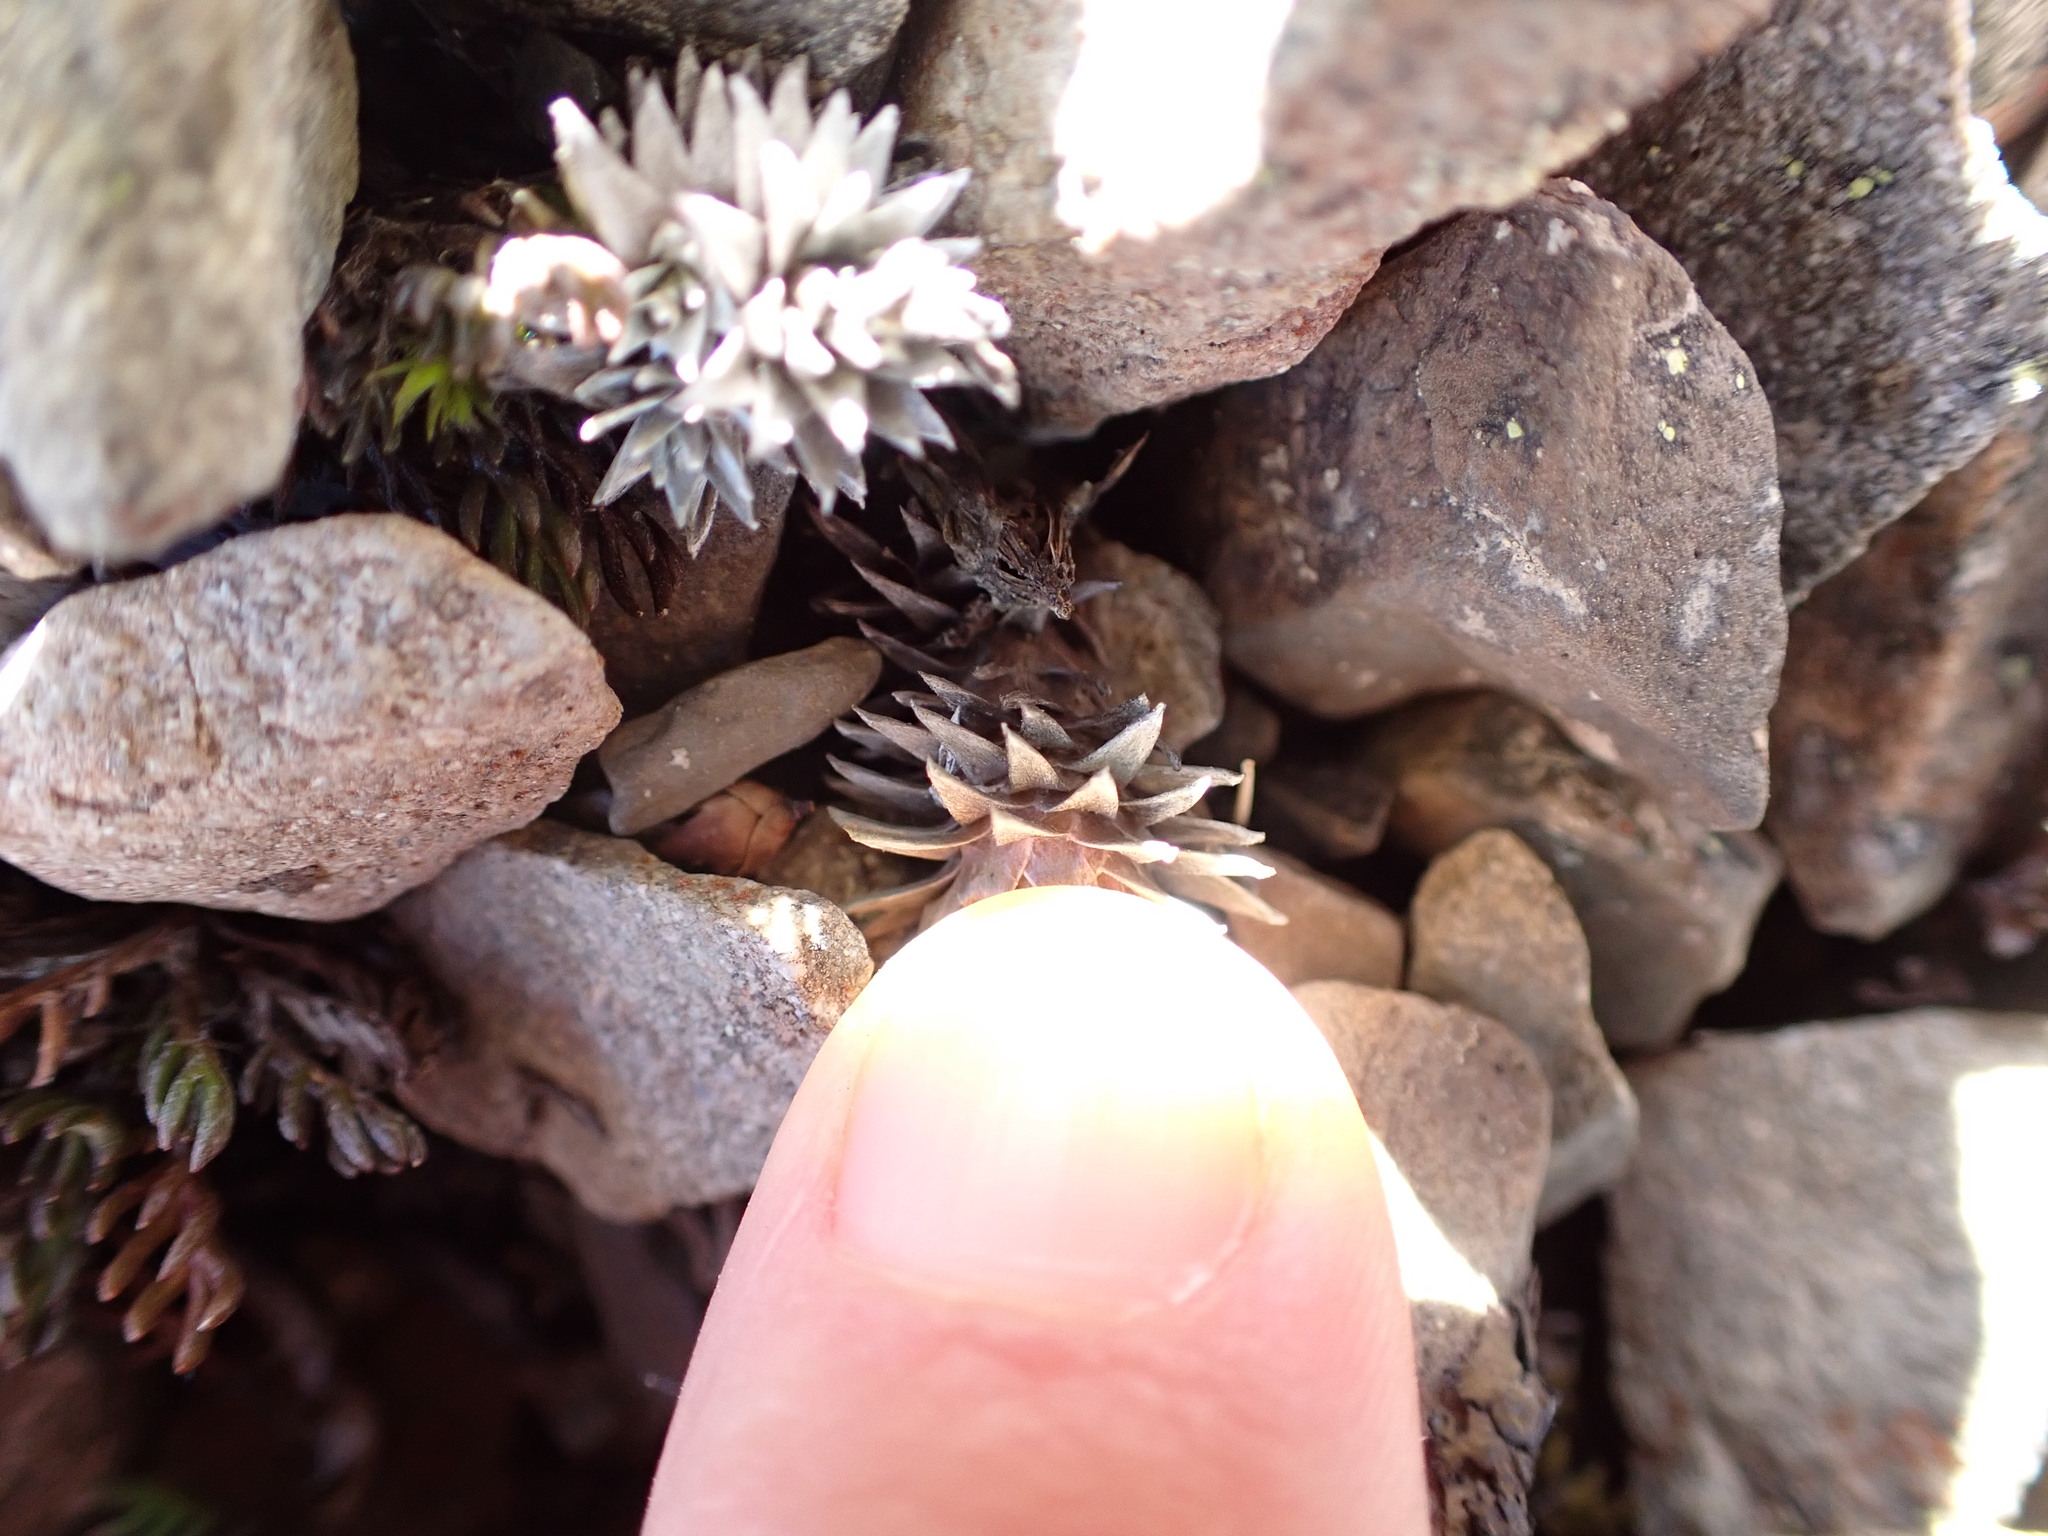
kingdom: Plantae
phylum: Tracheophyta
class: Magnoliopsida
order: Asterales
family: Asteraceae
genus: Raoulia
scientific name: Raoulia grandiflora
